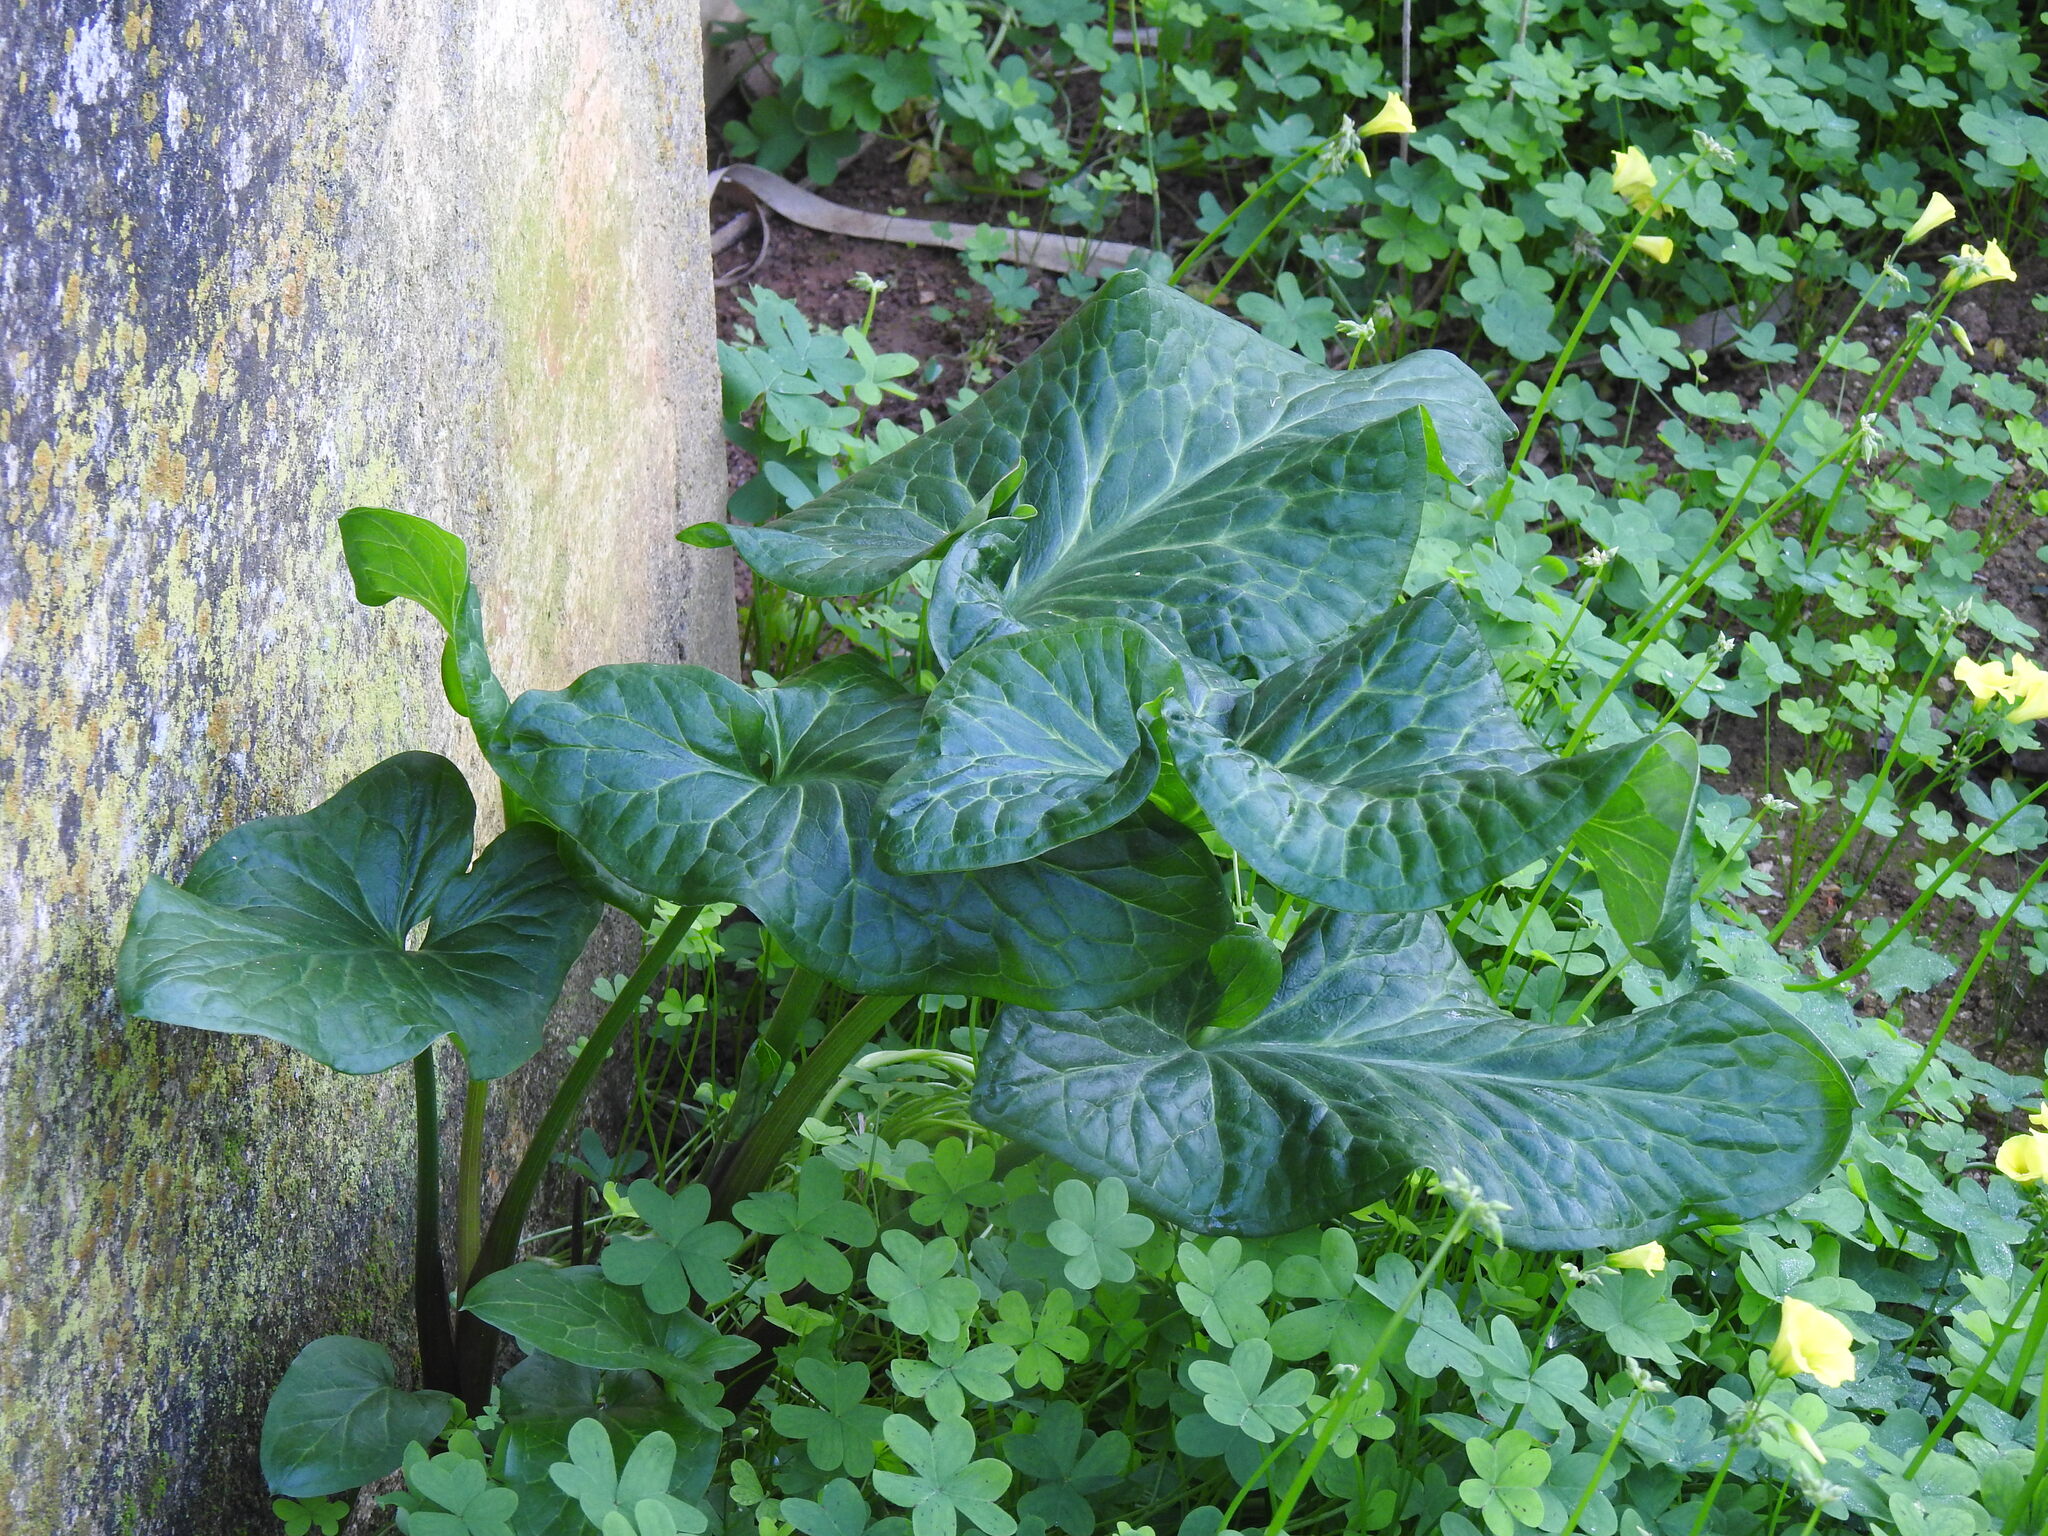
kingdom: Plantae
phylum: Tracheophyta
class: Liliopsida
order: Alismatales
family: Araceae
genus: Arum
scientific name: Arum italicum
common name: Italian lords-and-ladies
